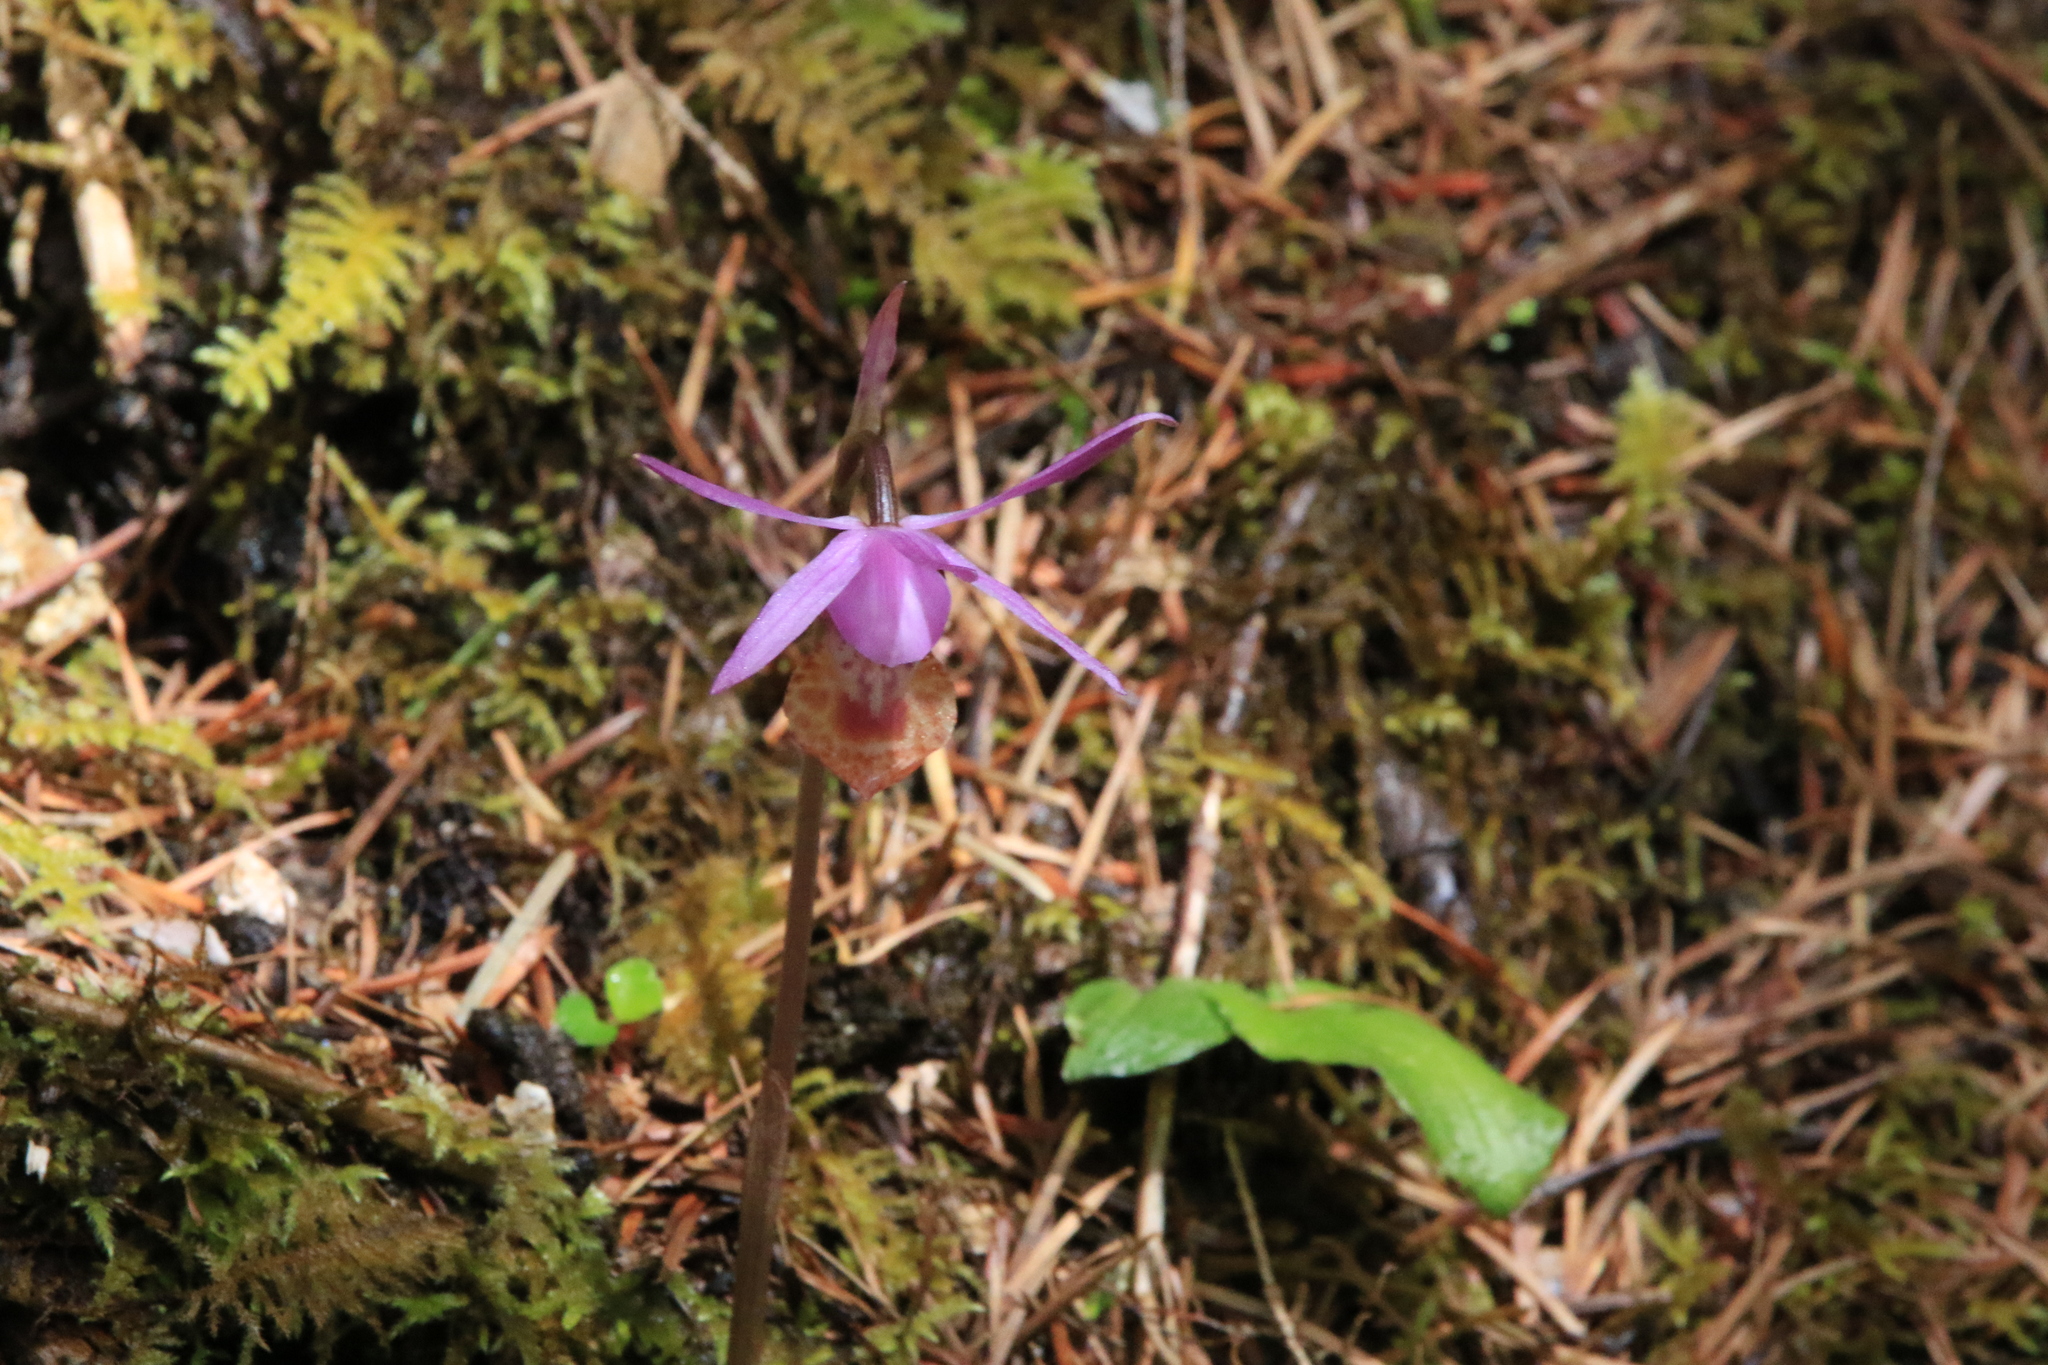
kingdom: Plantae
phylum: Tracheophyta
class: Liliopsida
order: Asparagales
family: Orchidaceae
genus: Calypso
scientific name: Calypso bulbosa
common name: Calypso
